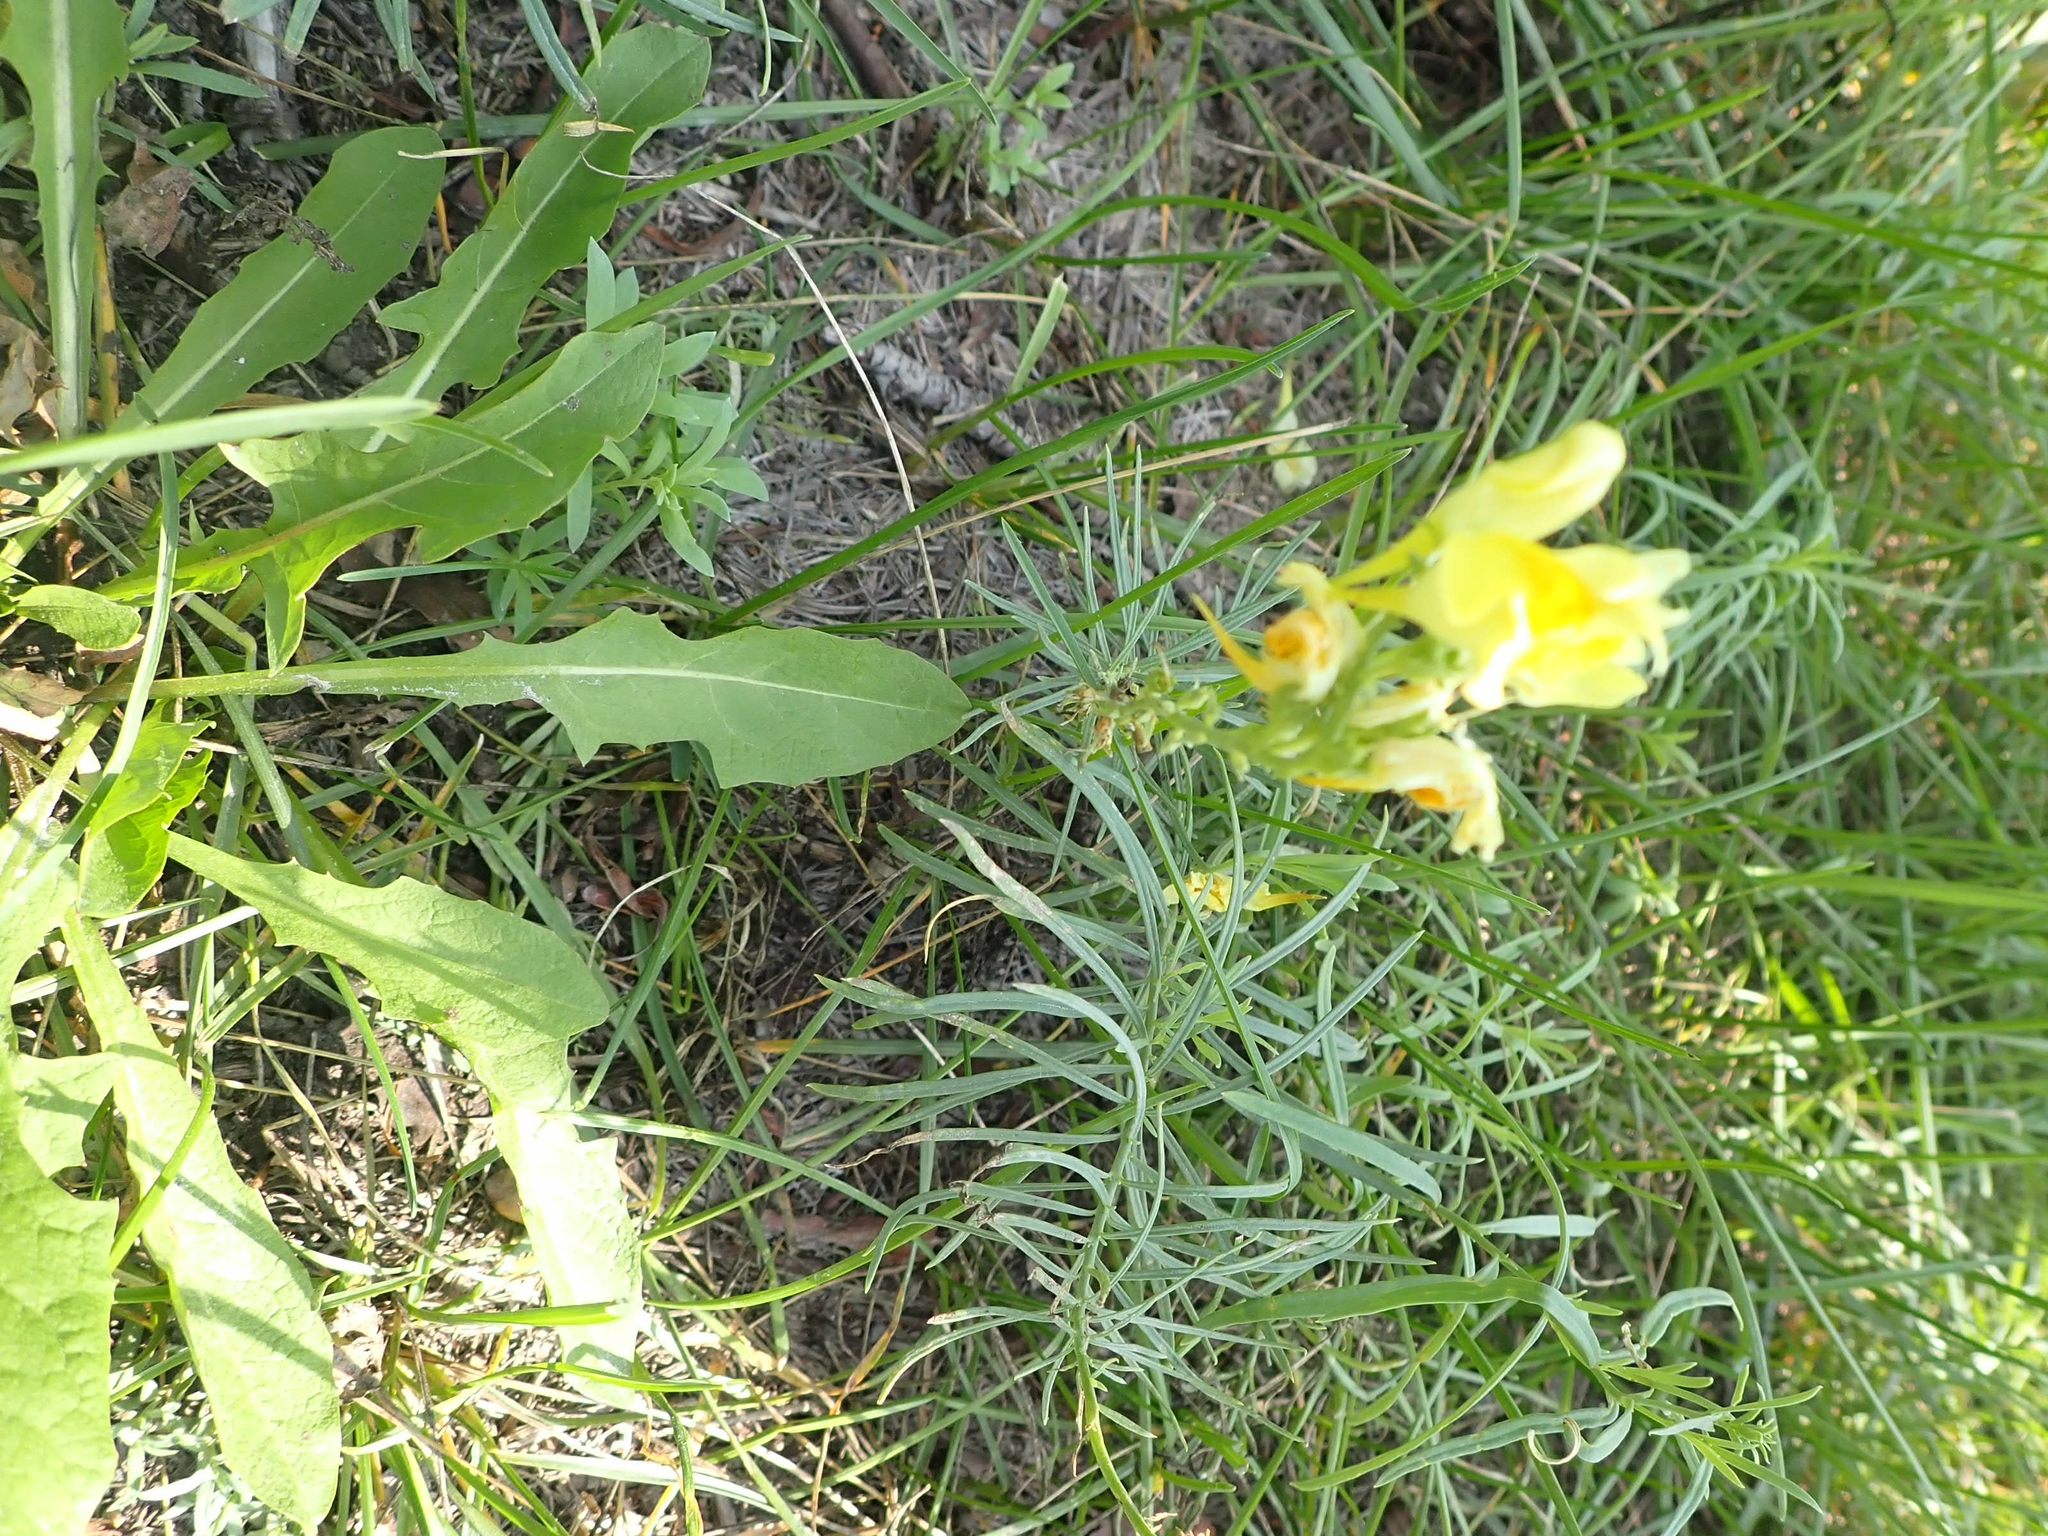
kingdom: Plantae
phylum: Tracheophyta
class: Magnoliopsida
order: Lamiales
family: Plantaginaceae
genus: Linaria
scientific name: Linaria vulgaris
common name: Butter and eggs
